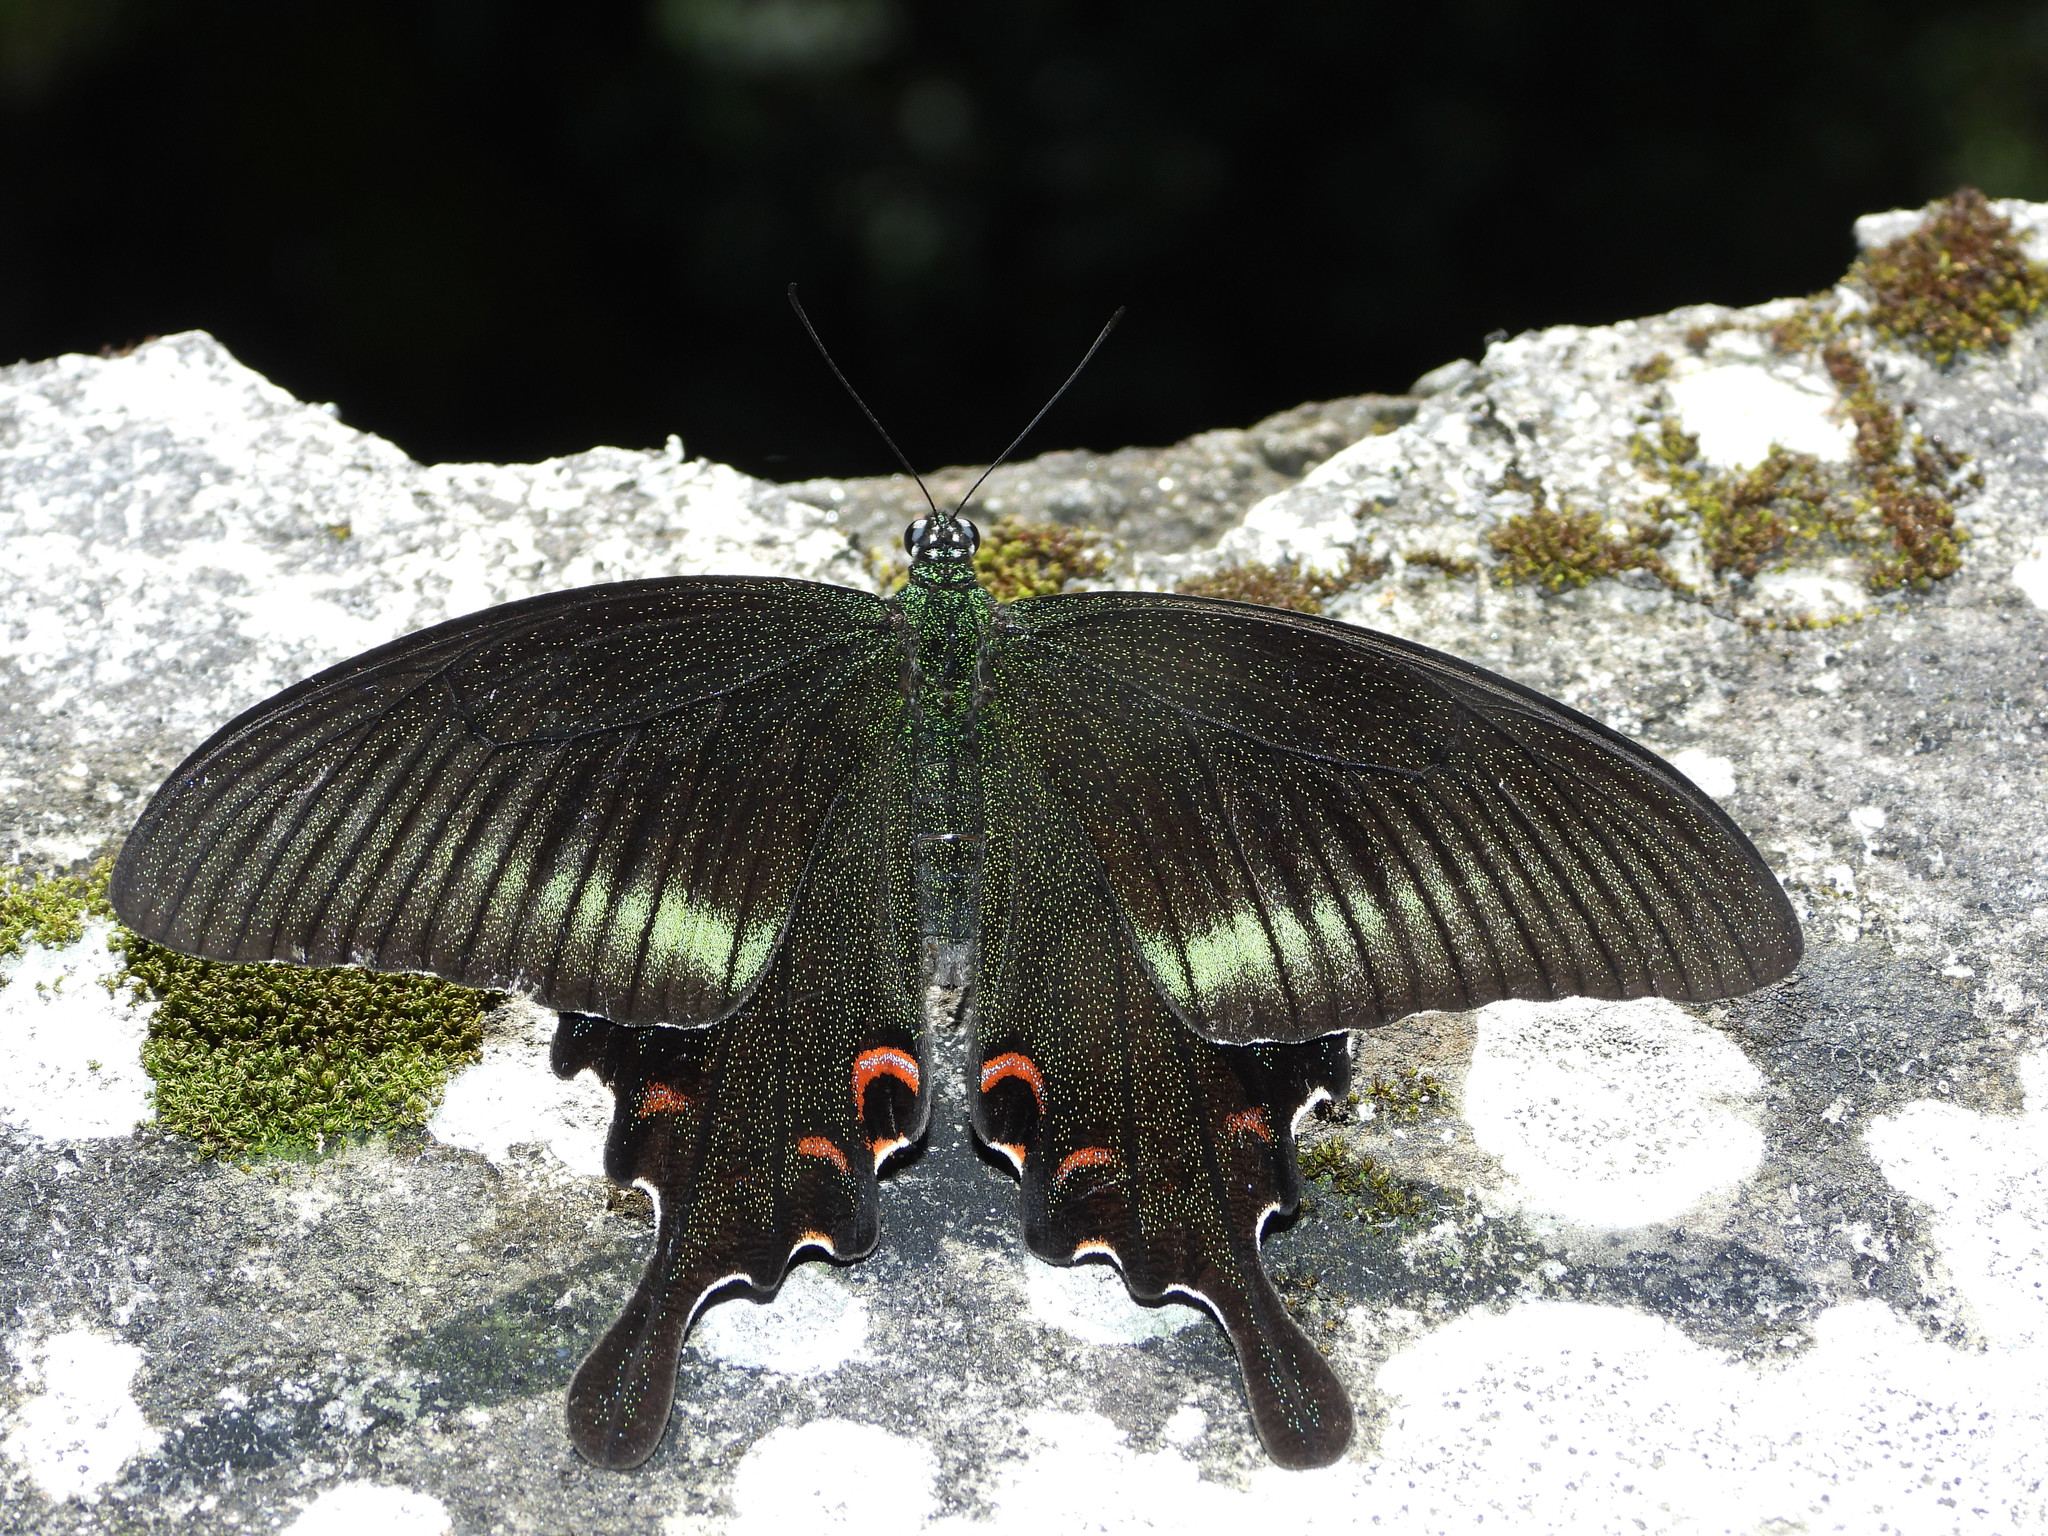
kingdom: Animalia
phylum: Arthropoda
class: Insecta
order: Lepidoptera
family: Papilionidae
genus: Papilio
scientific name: Papilio bianor
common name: Common peacock
